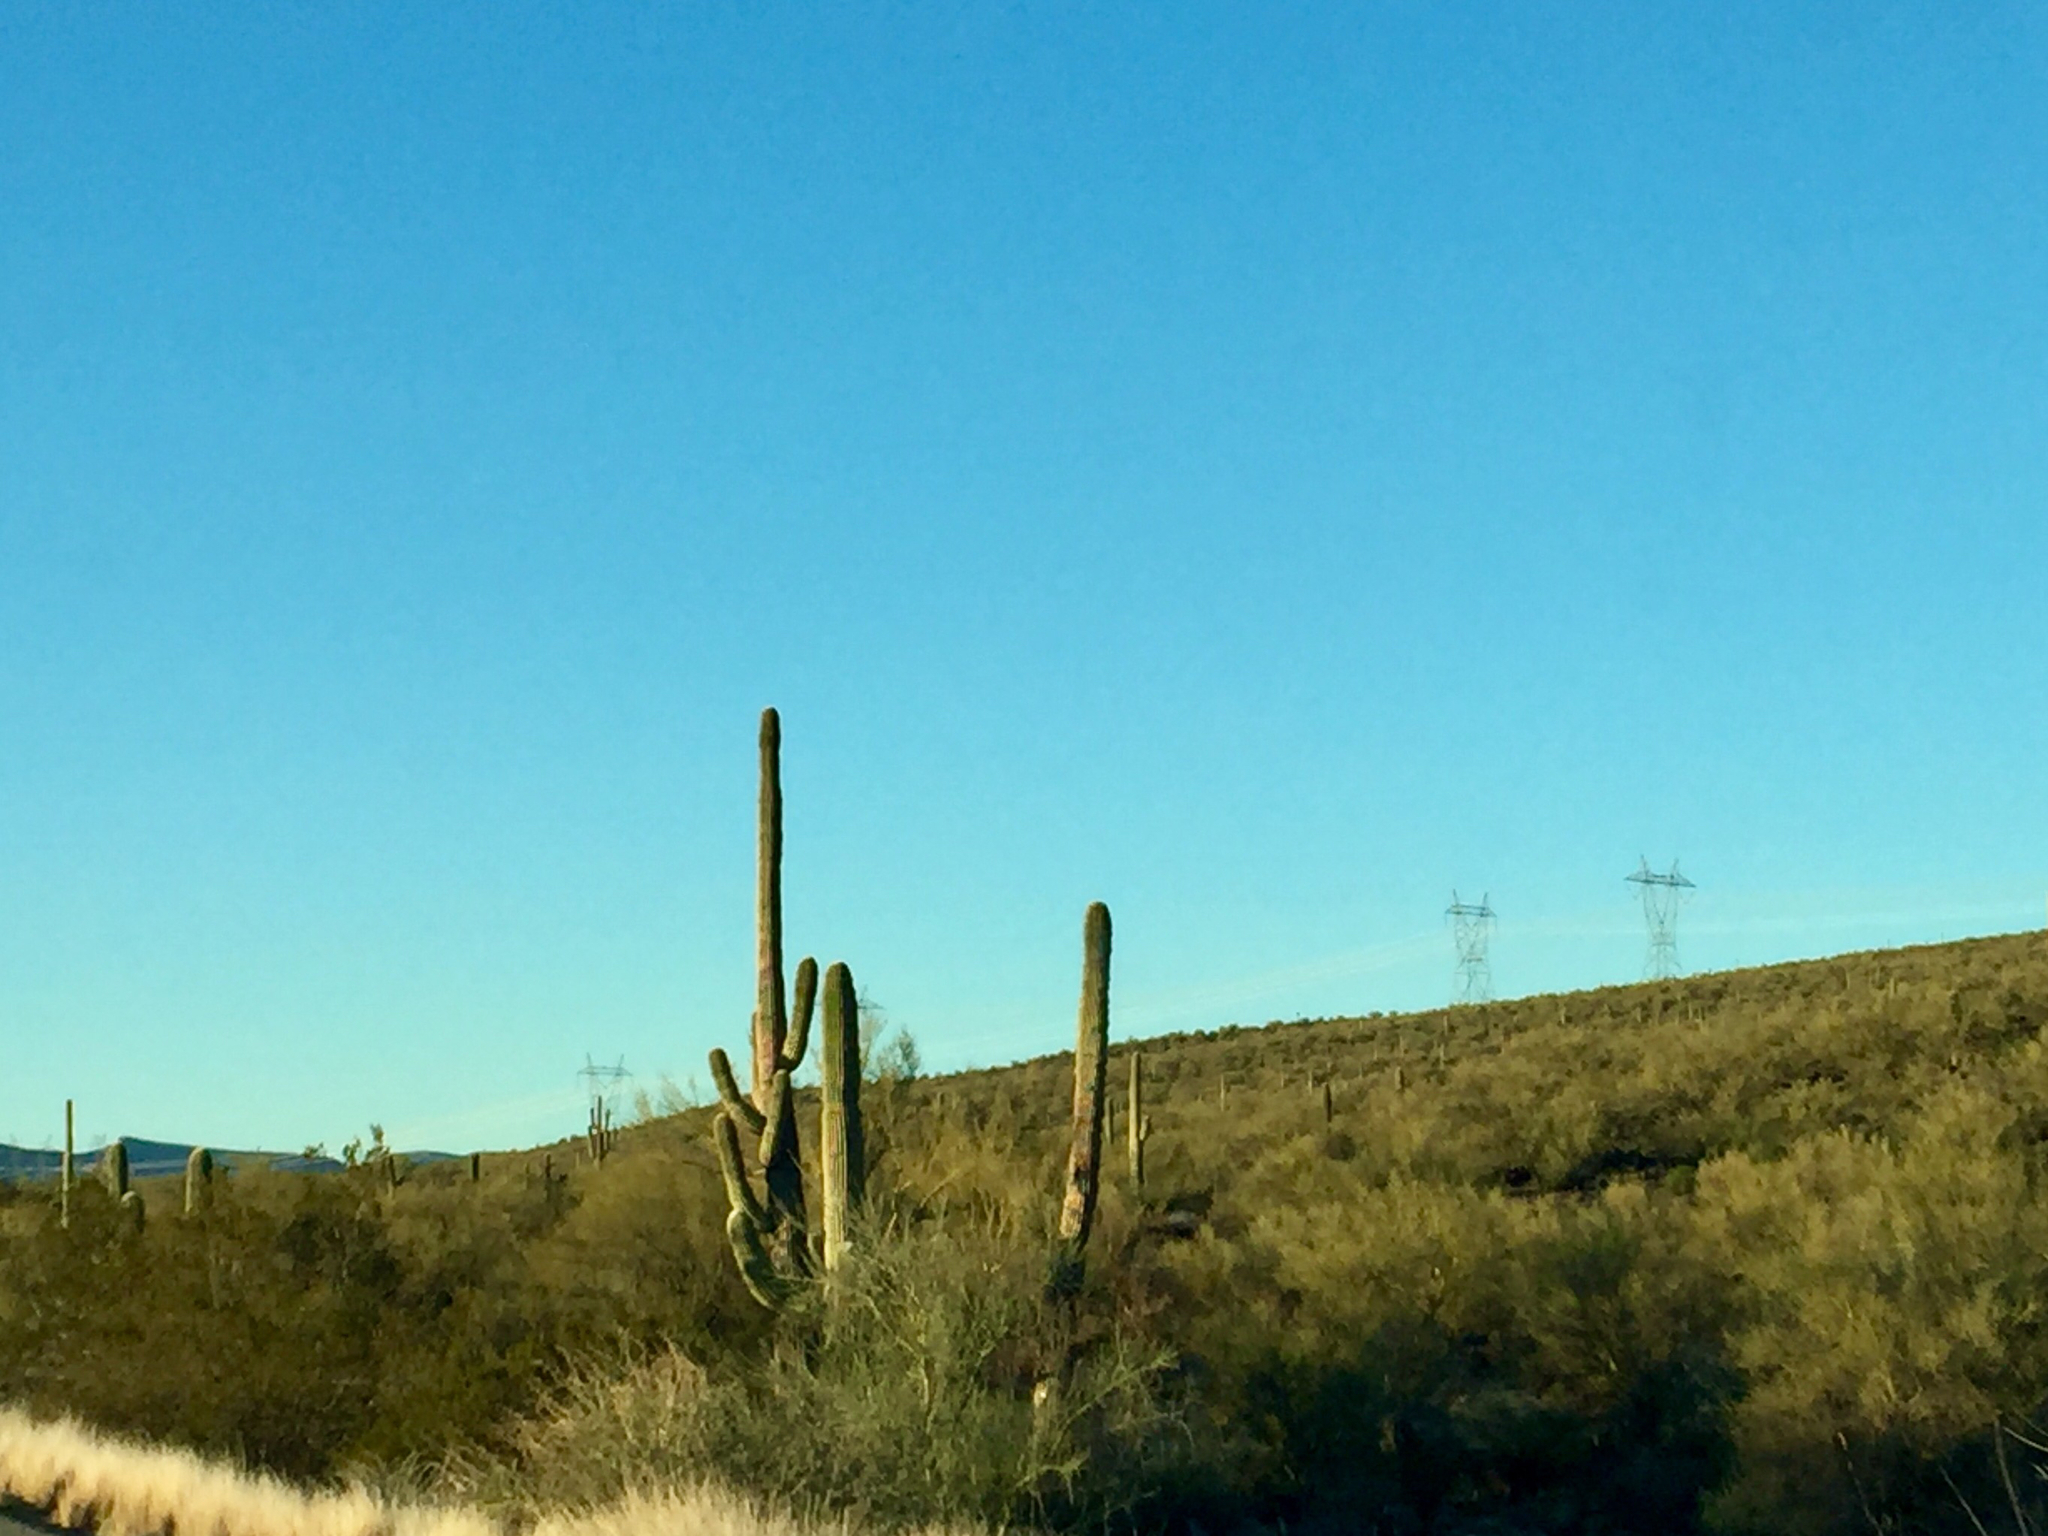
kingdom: Plantae
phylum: Tracheophyta
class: Magnoliopsida
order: Caryophyllales
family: Cactaceae
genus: Carnegiea
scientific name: Carnegiea gigantea
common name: Saguaro
